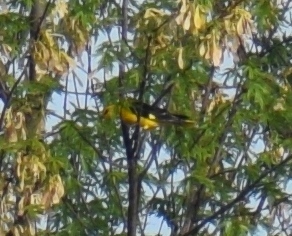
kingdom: Animalia
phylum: Chordata
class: Aves
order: Passeriformes
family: Oriolidae
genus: Oriolus
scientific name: Oriolus oriolus
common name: Eurasian golden oriole
